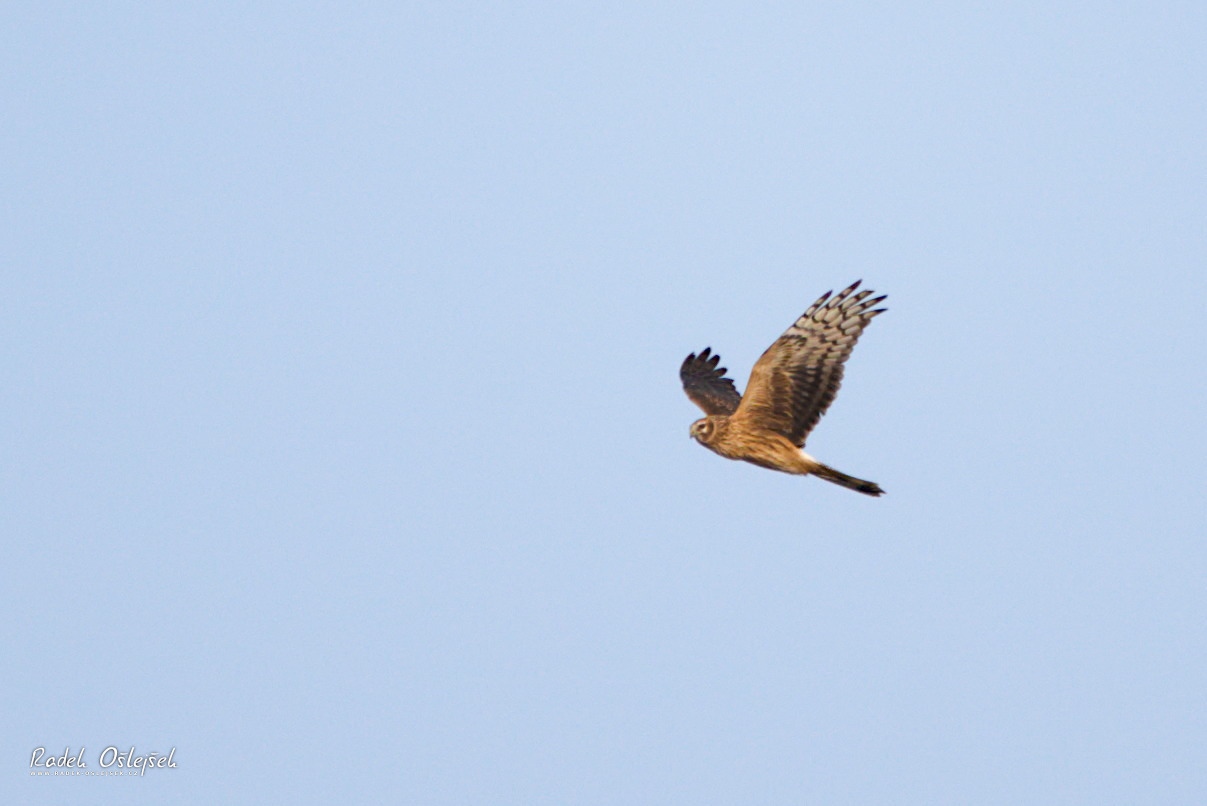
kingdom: Animalia
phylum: Chordata
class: Aves
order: Accipitriformes
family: Accipitridae
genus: Circus
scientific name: Circus cyaneus
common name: Hen harrier
